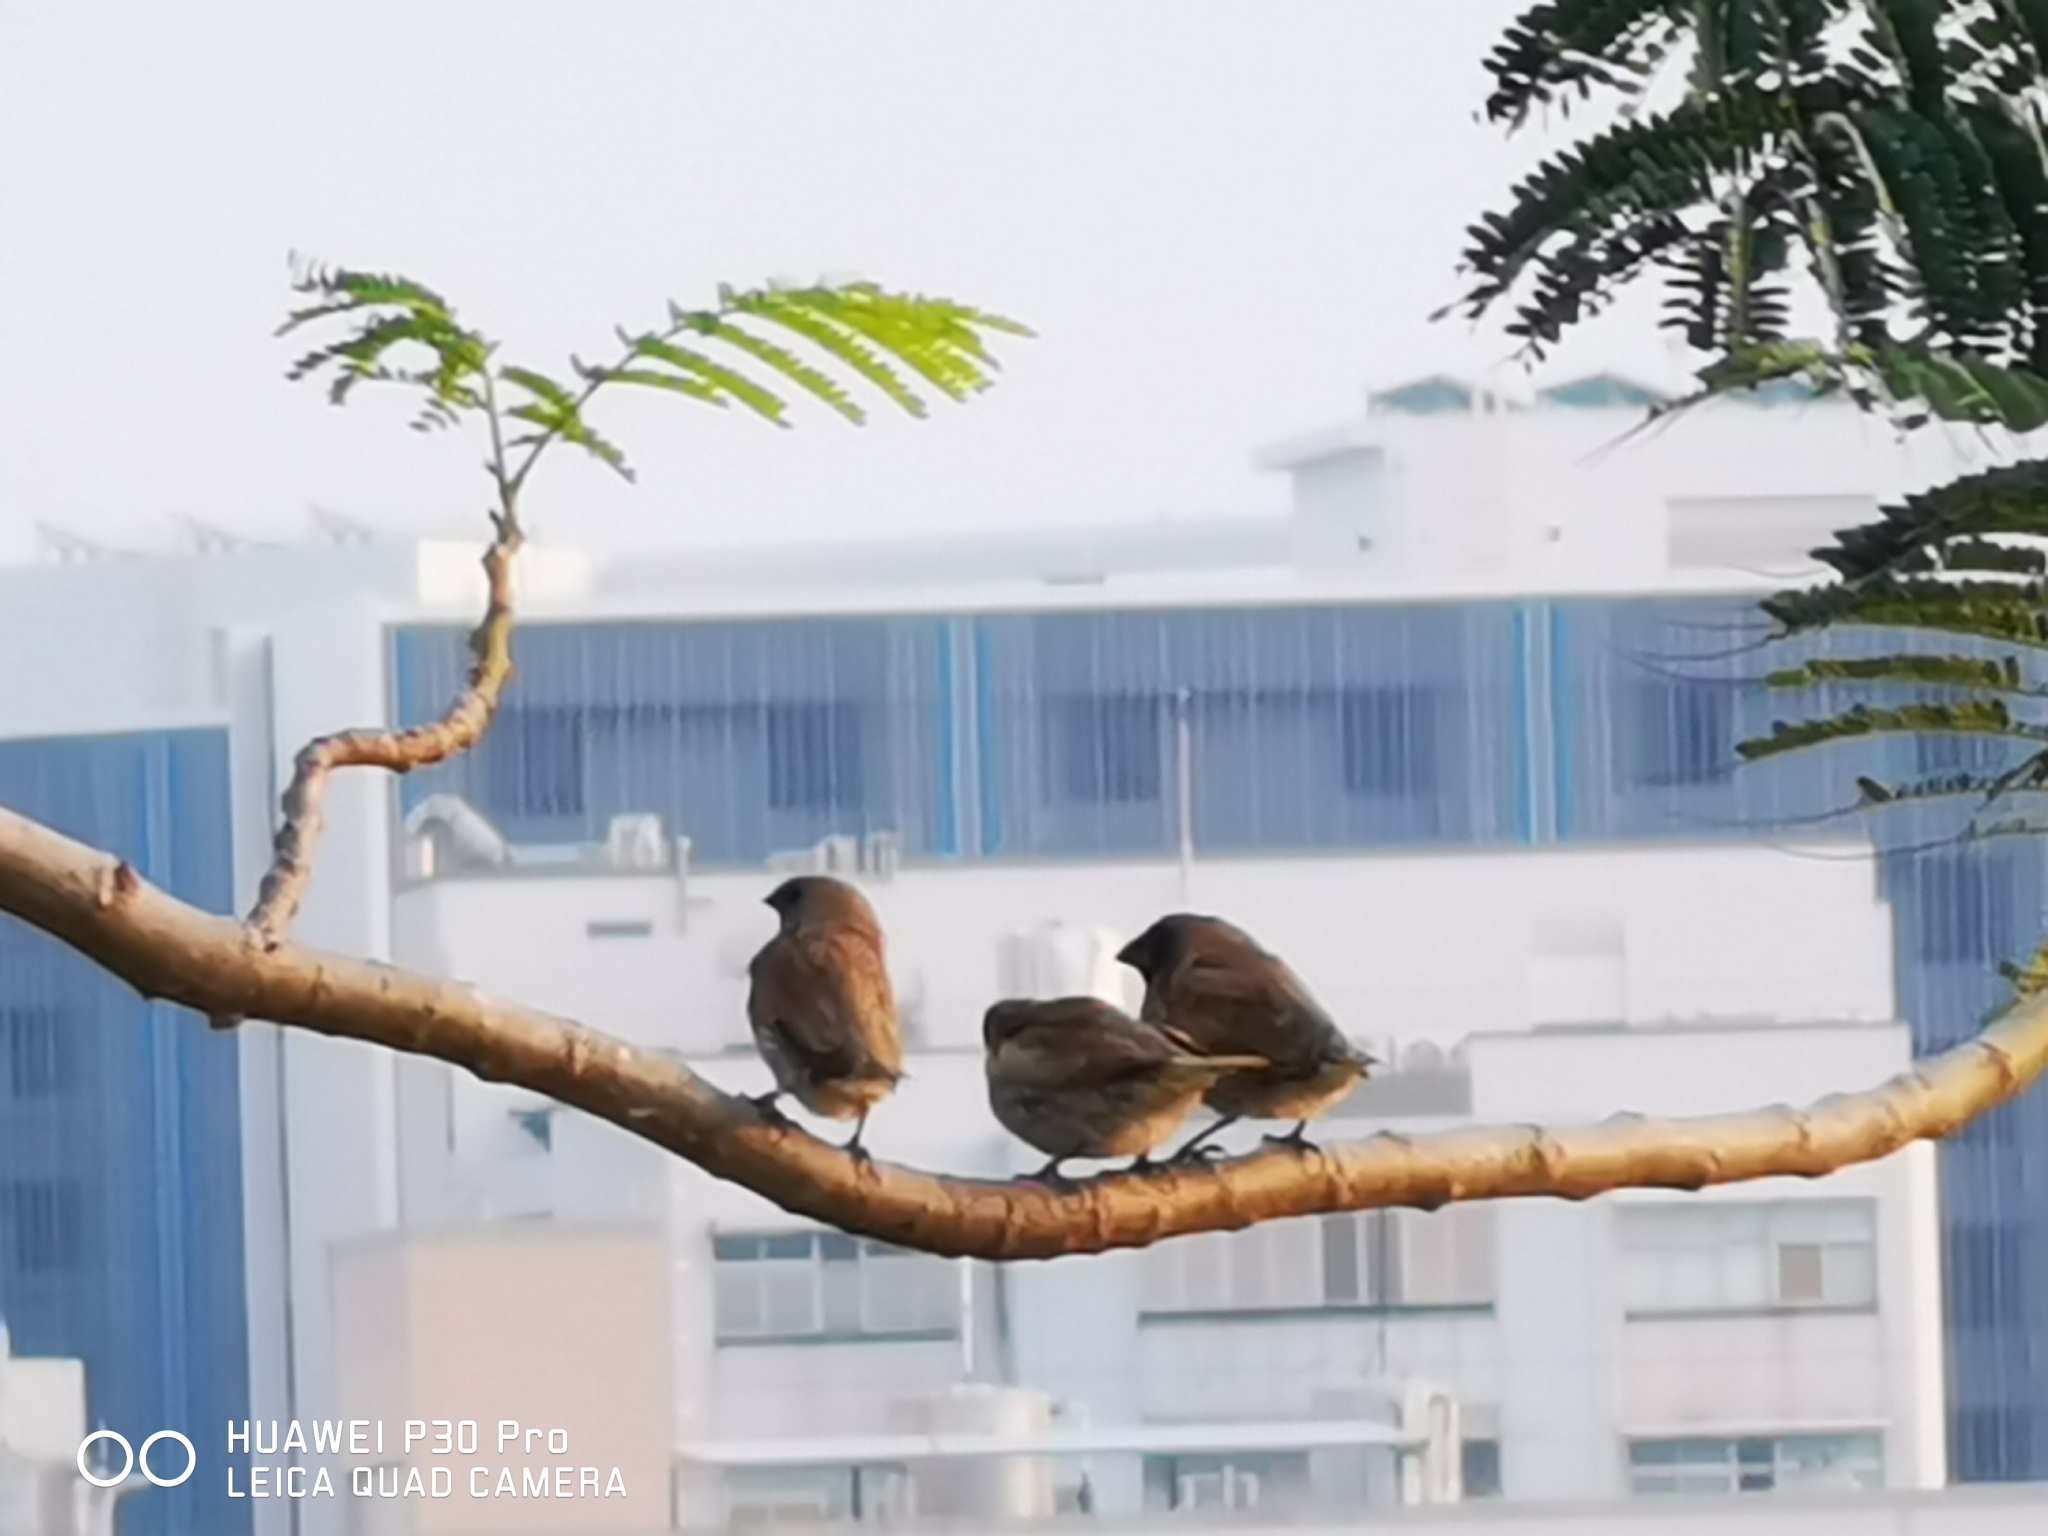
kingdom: Animalia
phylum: Chordata
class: Aves
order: Passeriformes
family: Estrildidae
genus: Lonchura
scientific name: Lonchura punctulata
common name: Scaly-breasted munia
